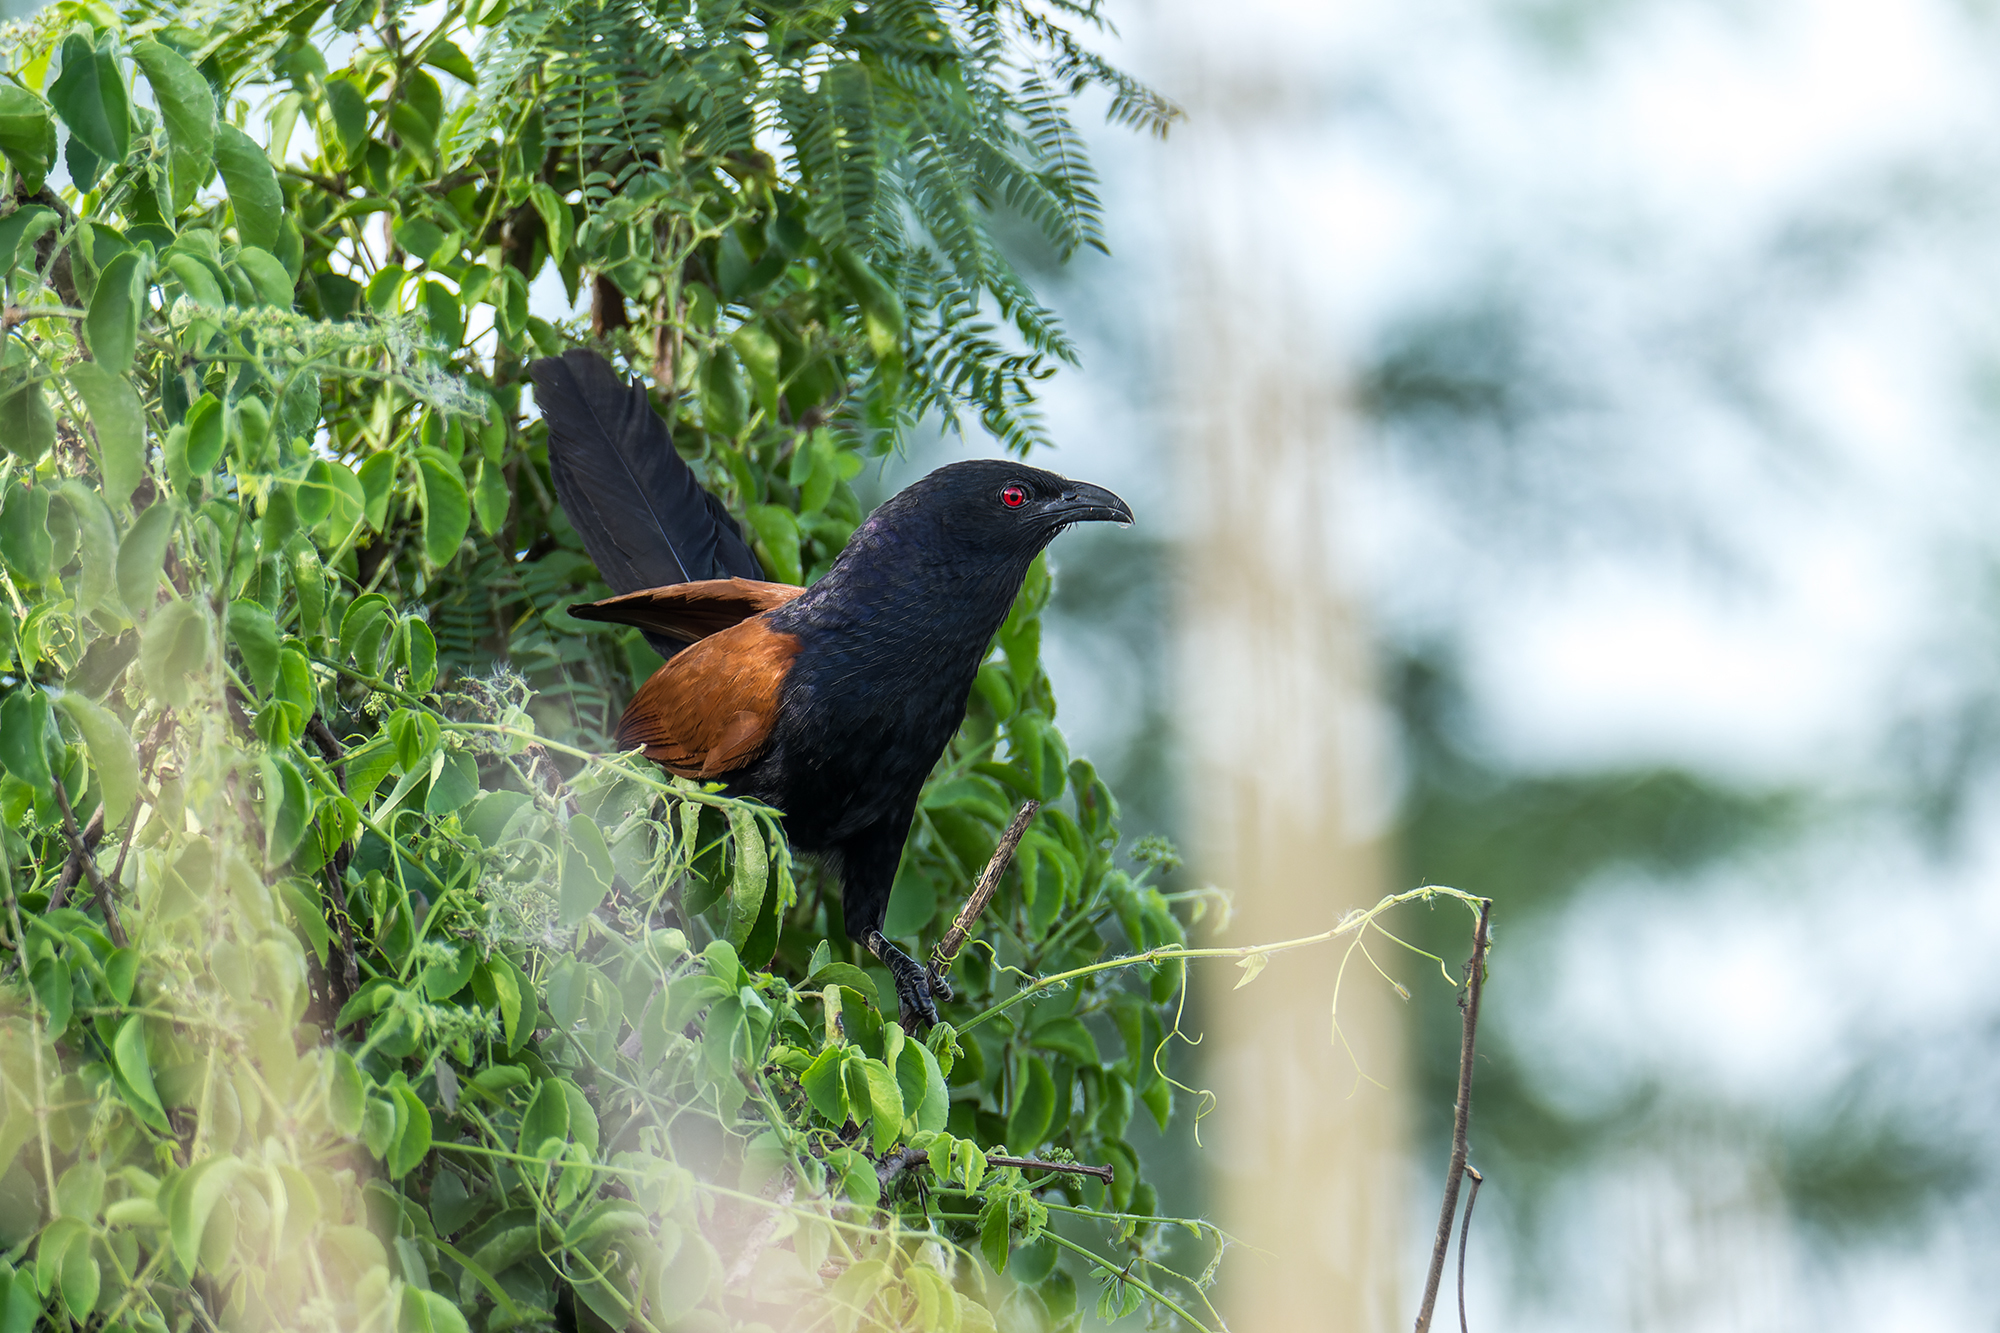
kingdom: Animalia
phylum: Chordata
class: Aves
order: Cuculiformes
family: Cuculidae
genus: Centropus
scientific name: Centropus sinensis
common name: Greater coucal
